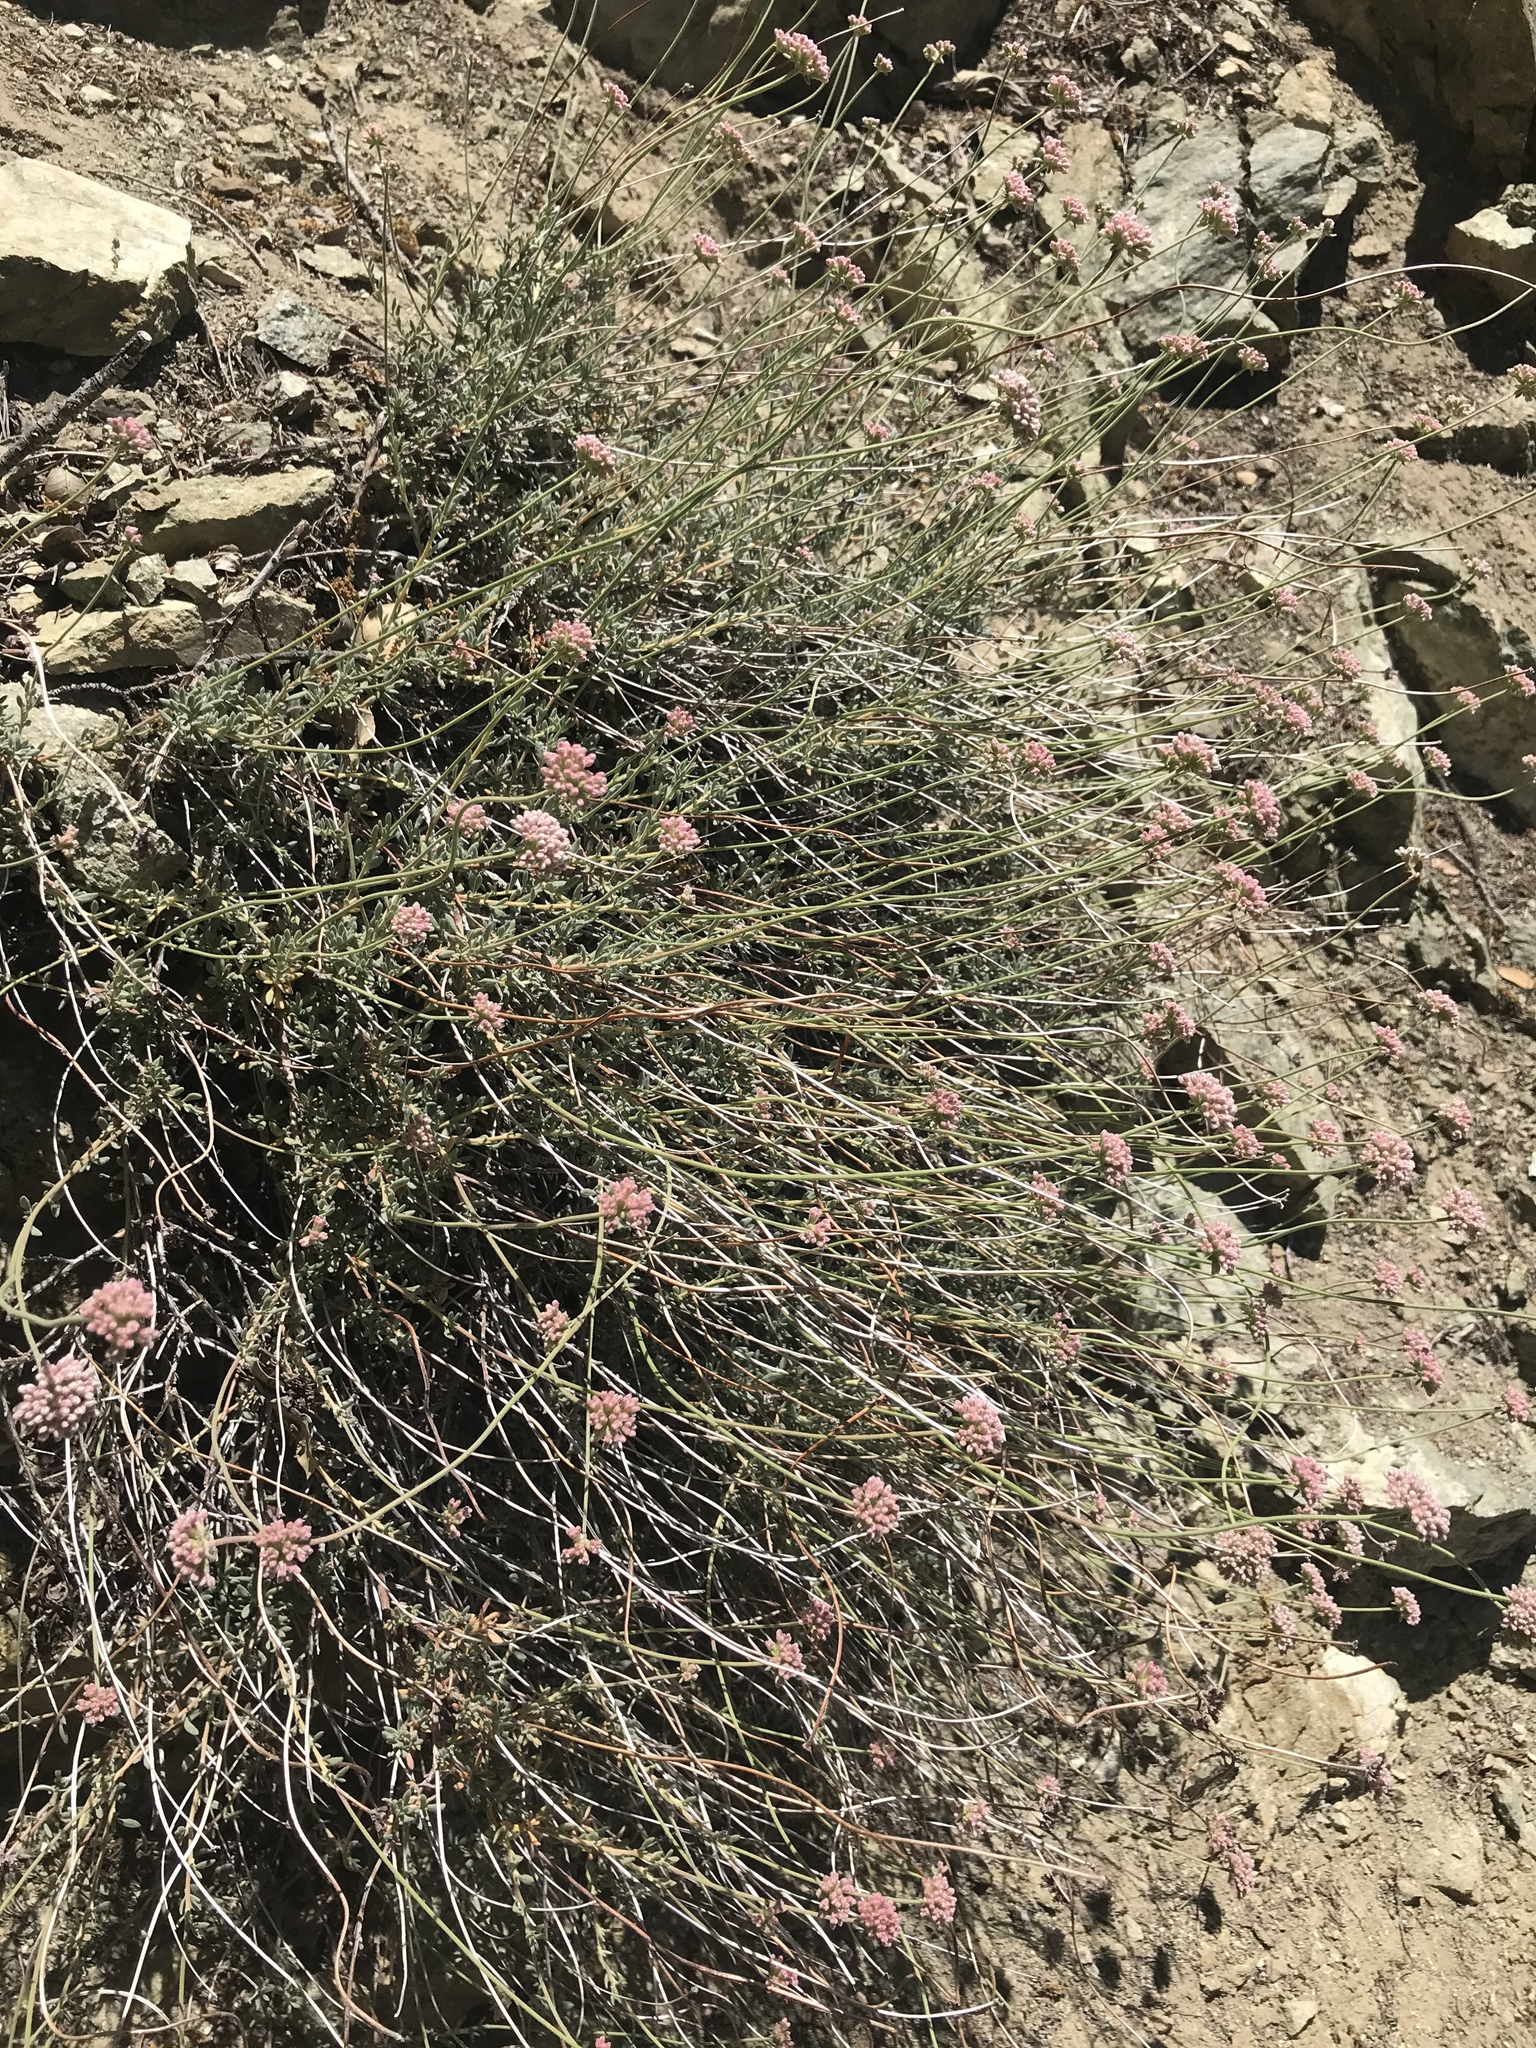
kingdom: Plantae
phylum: Tracheophyta
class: Magnoliopsida
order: Caryophyllales
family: Polygonaceae
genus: Eriogonum
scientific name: Eriogonum fasciculatum
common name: California wild buckwheat
